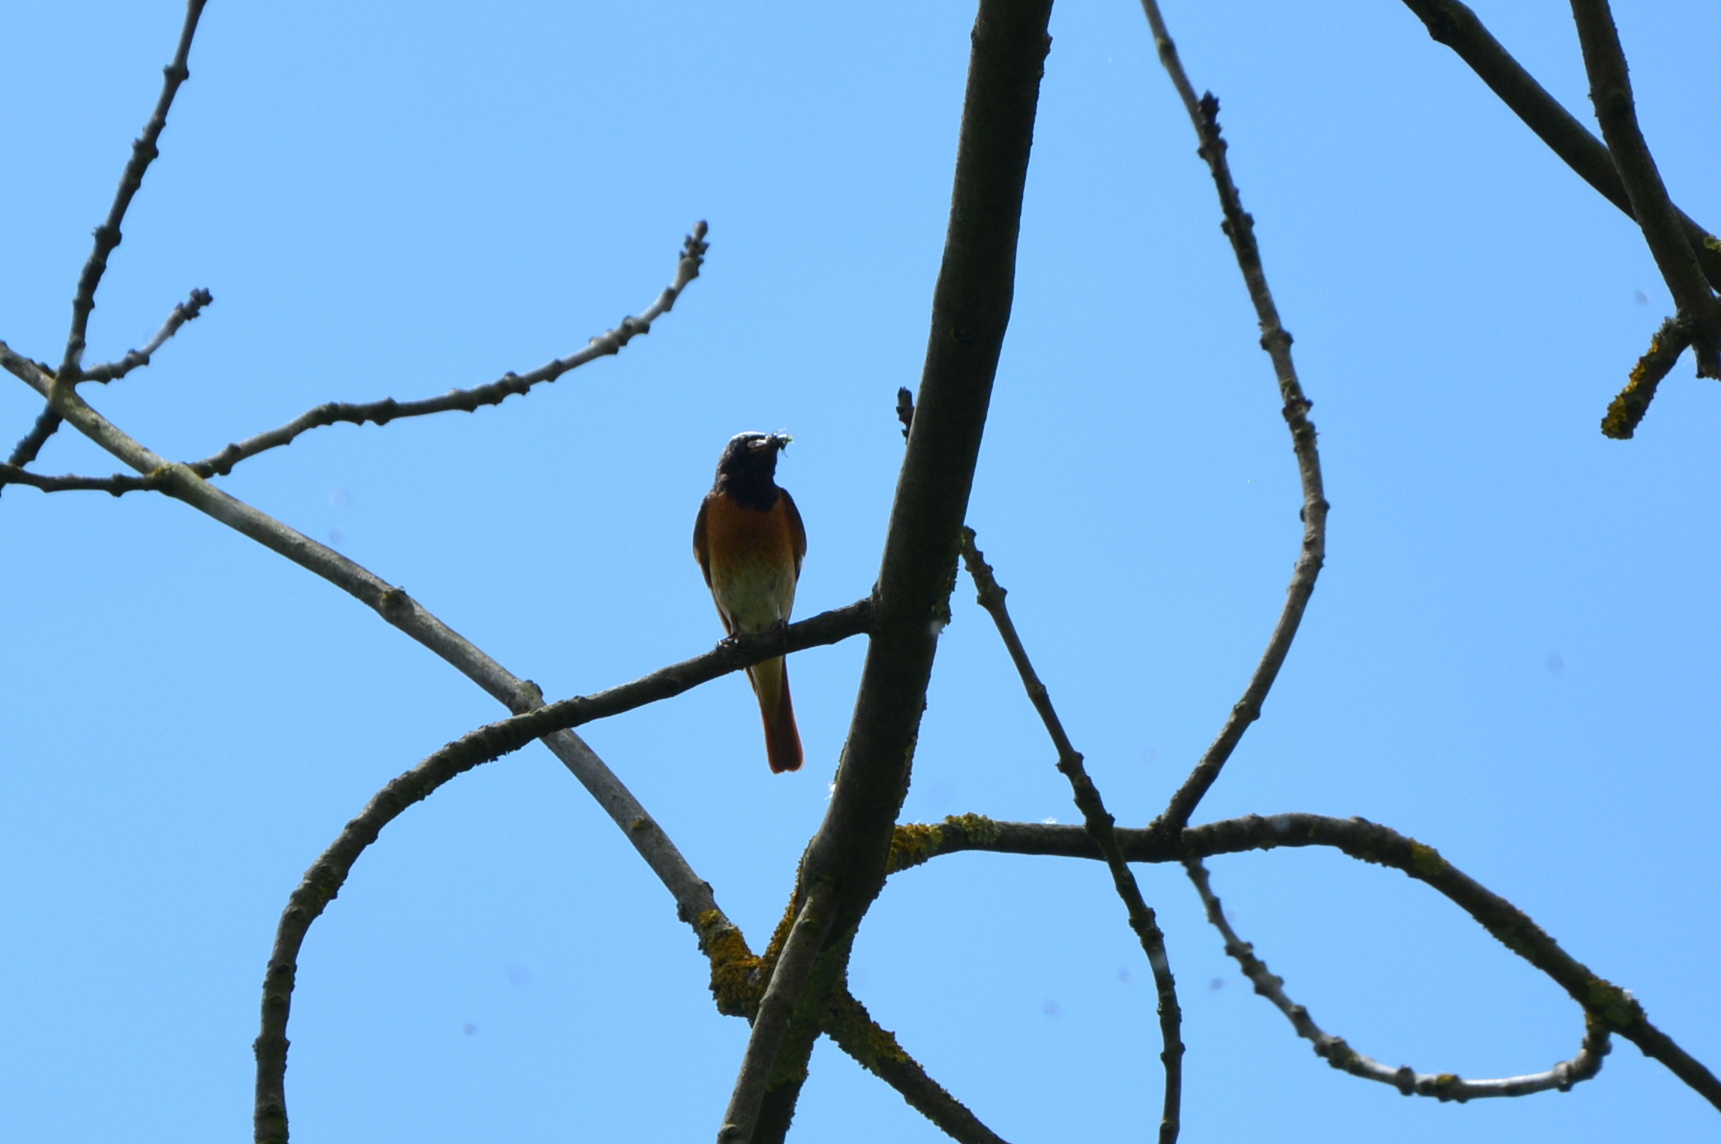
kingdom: Animalia
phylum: Chordata
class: Aves
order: Passeriformes
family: Muscicapidae
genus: Phoenicurus
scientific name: Phoenicurus phoenicurus
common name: Common redstart
